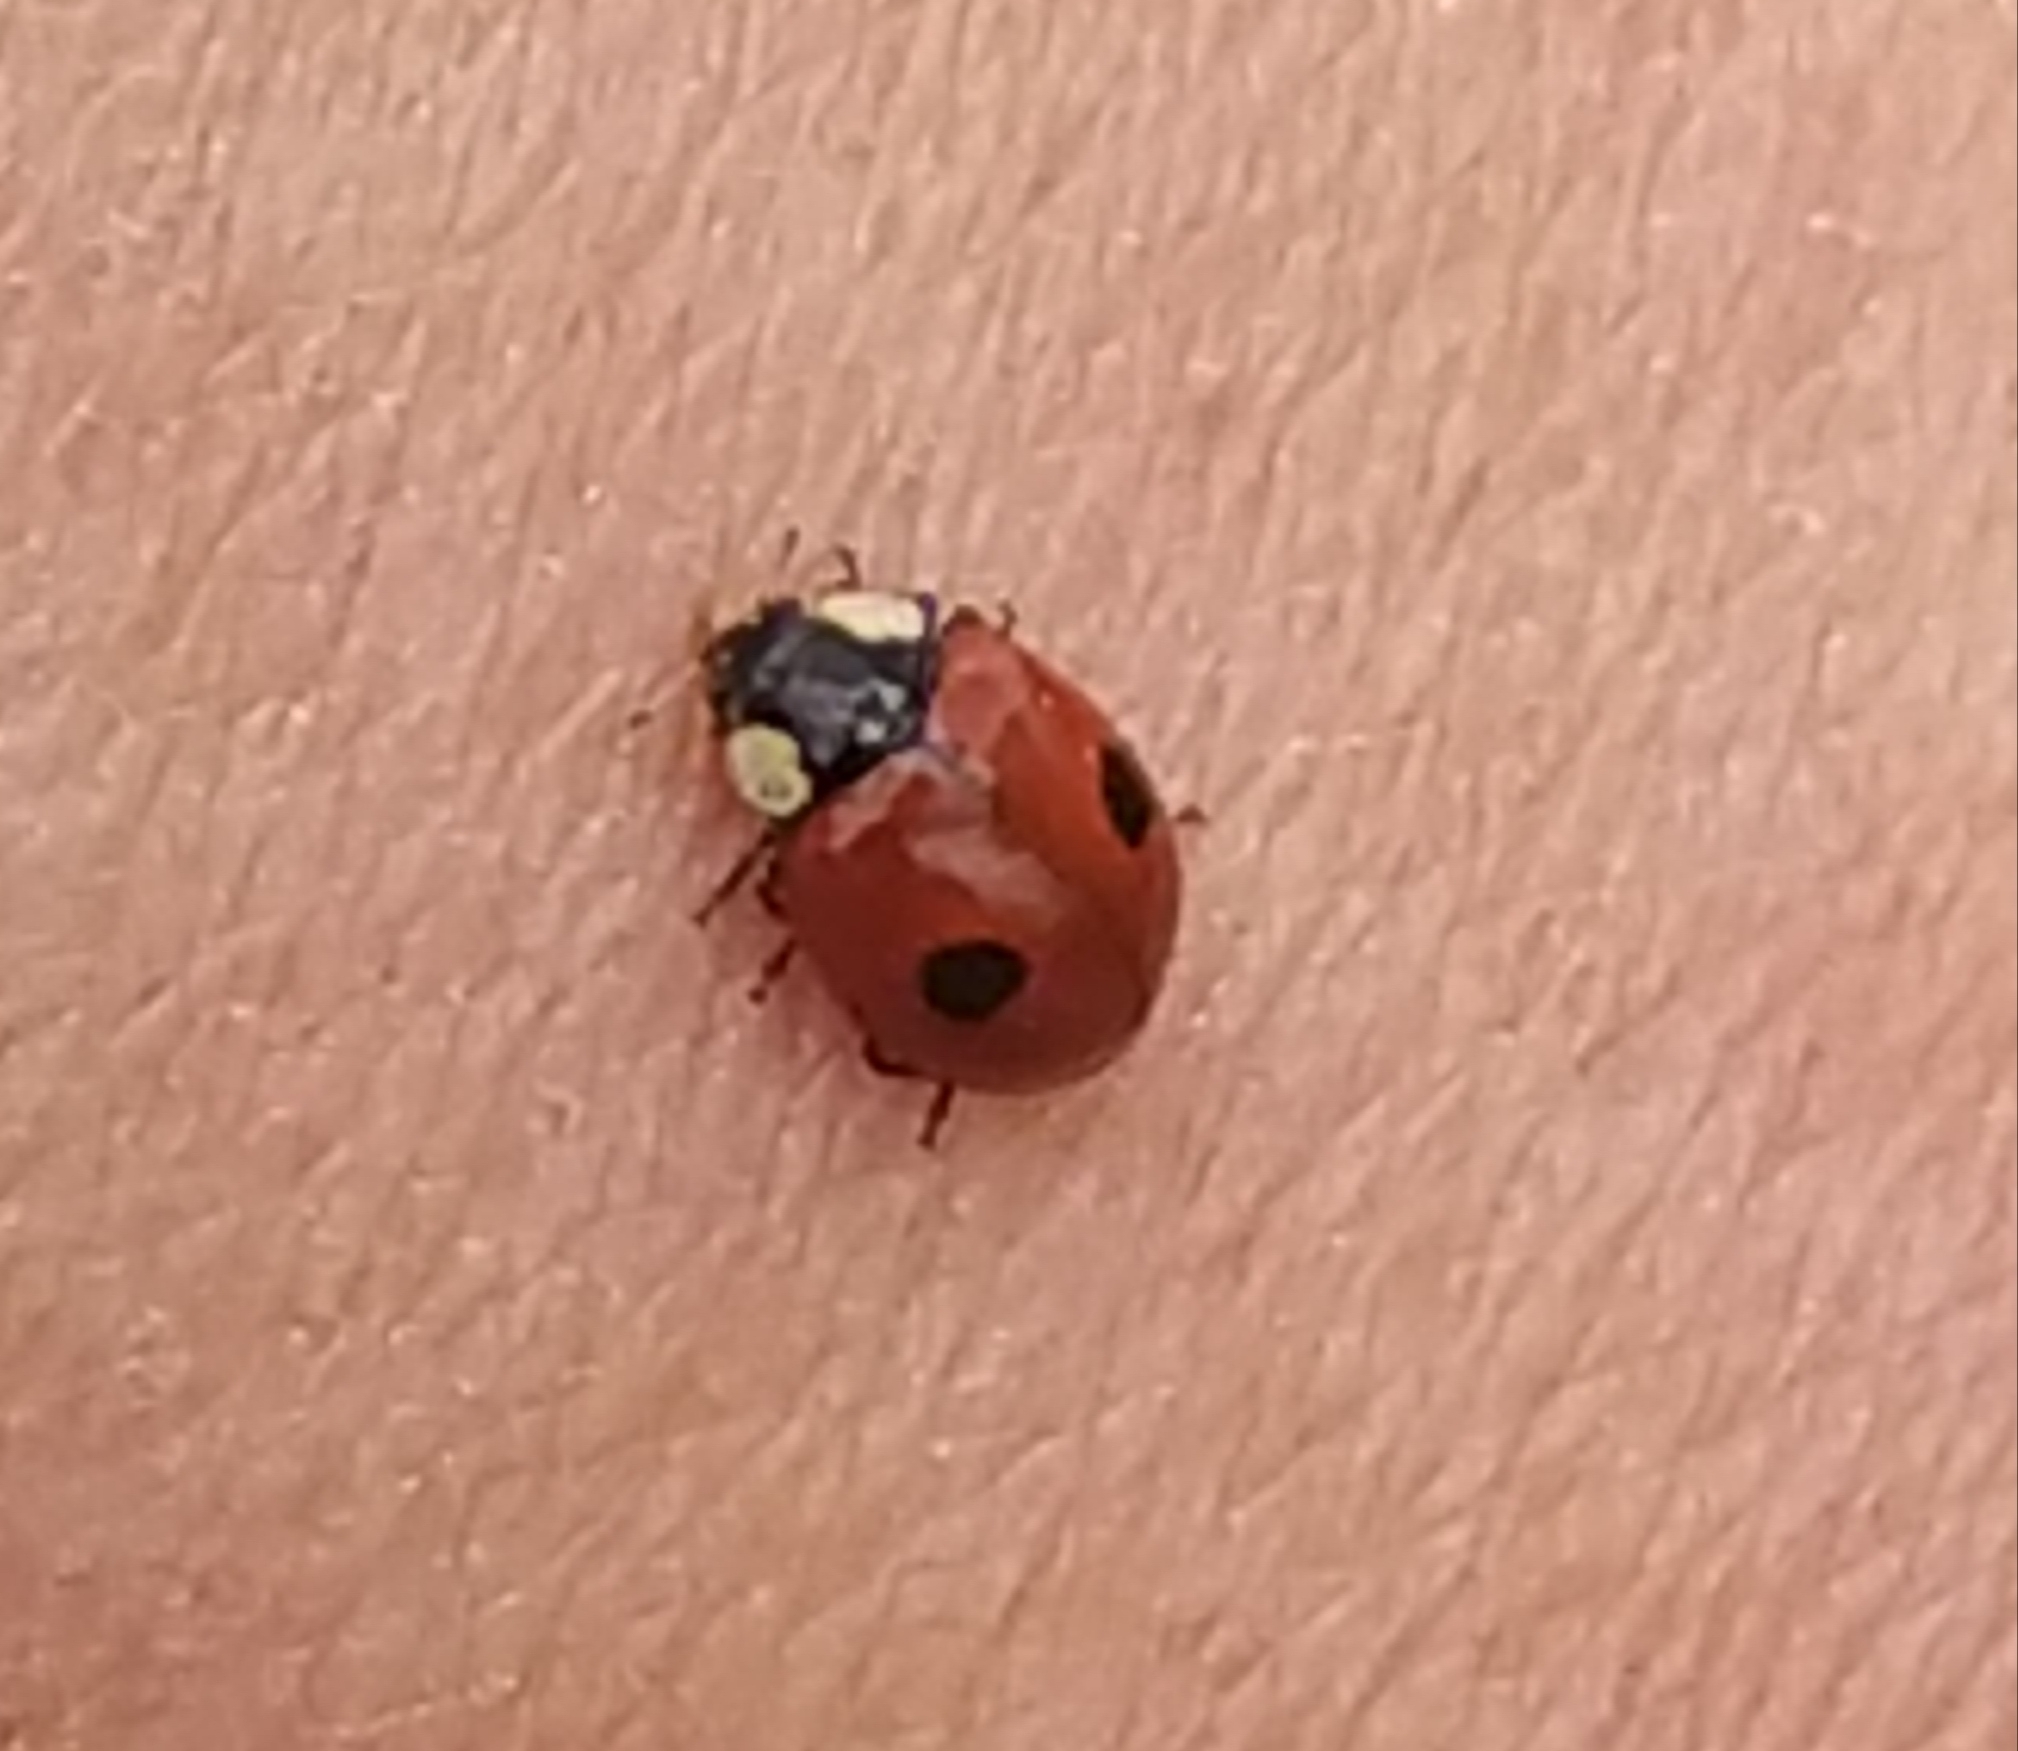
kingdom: Animalia
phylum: Arthropoda
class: Insecta
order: Coleoptera
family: Coccinellidae
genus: Adalia
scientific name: Adalia bipunctata
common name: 2-spot ladybird
